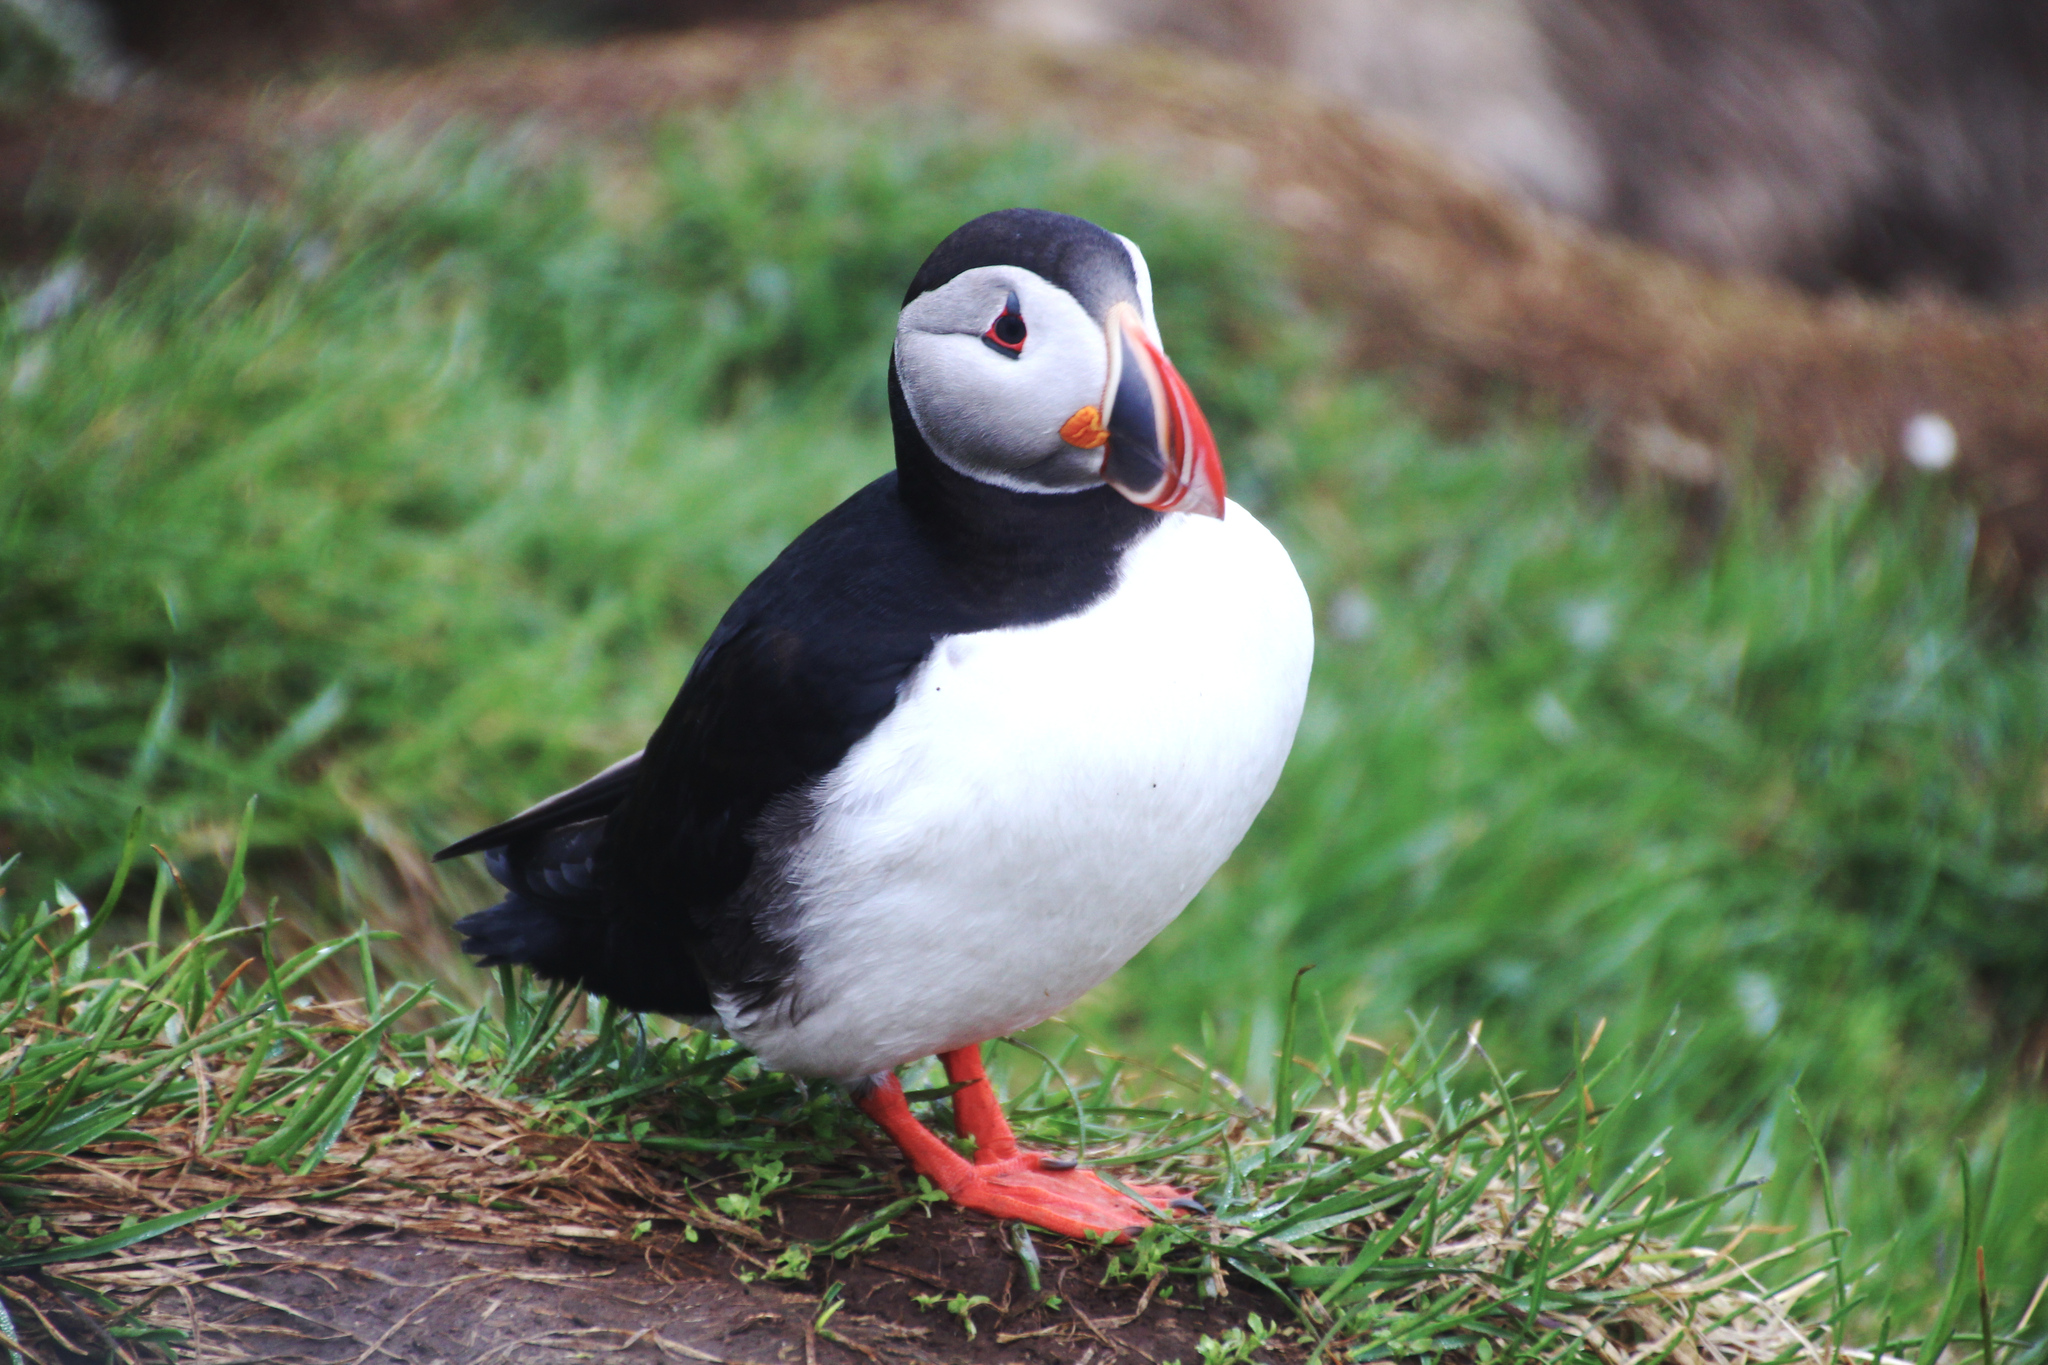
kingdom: Animalia
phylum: Chordata
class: Aves
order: Charadriiformes
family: Alcidae
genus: Fratercula
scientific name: Fratercula arctica
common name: Atlantic puffin
